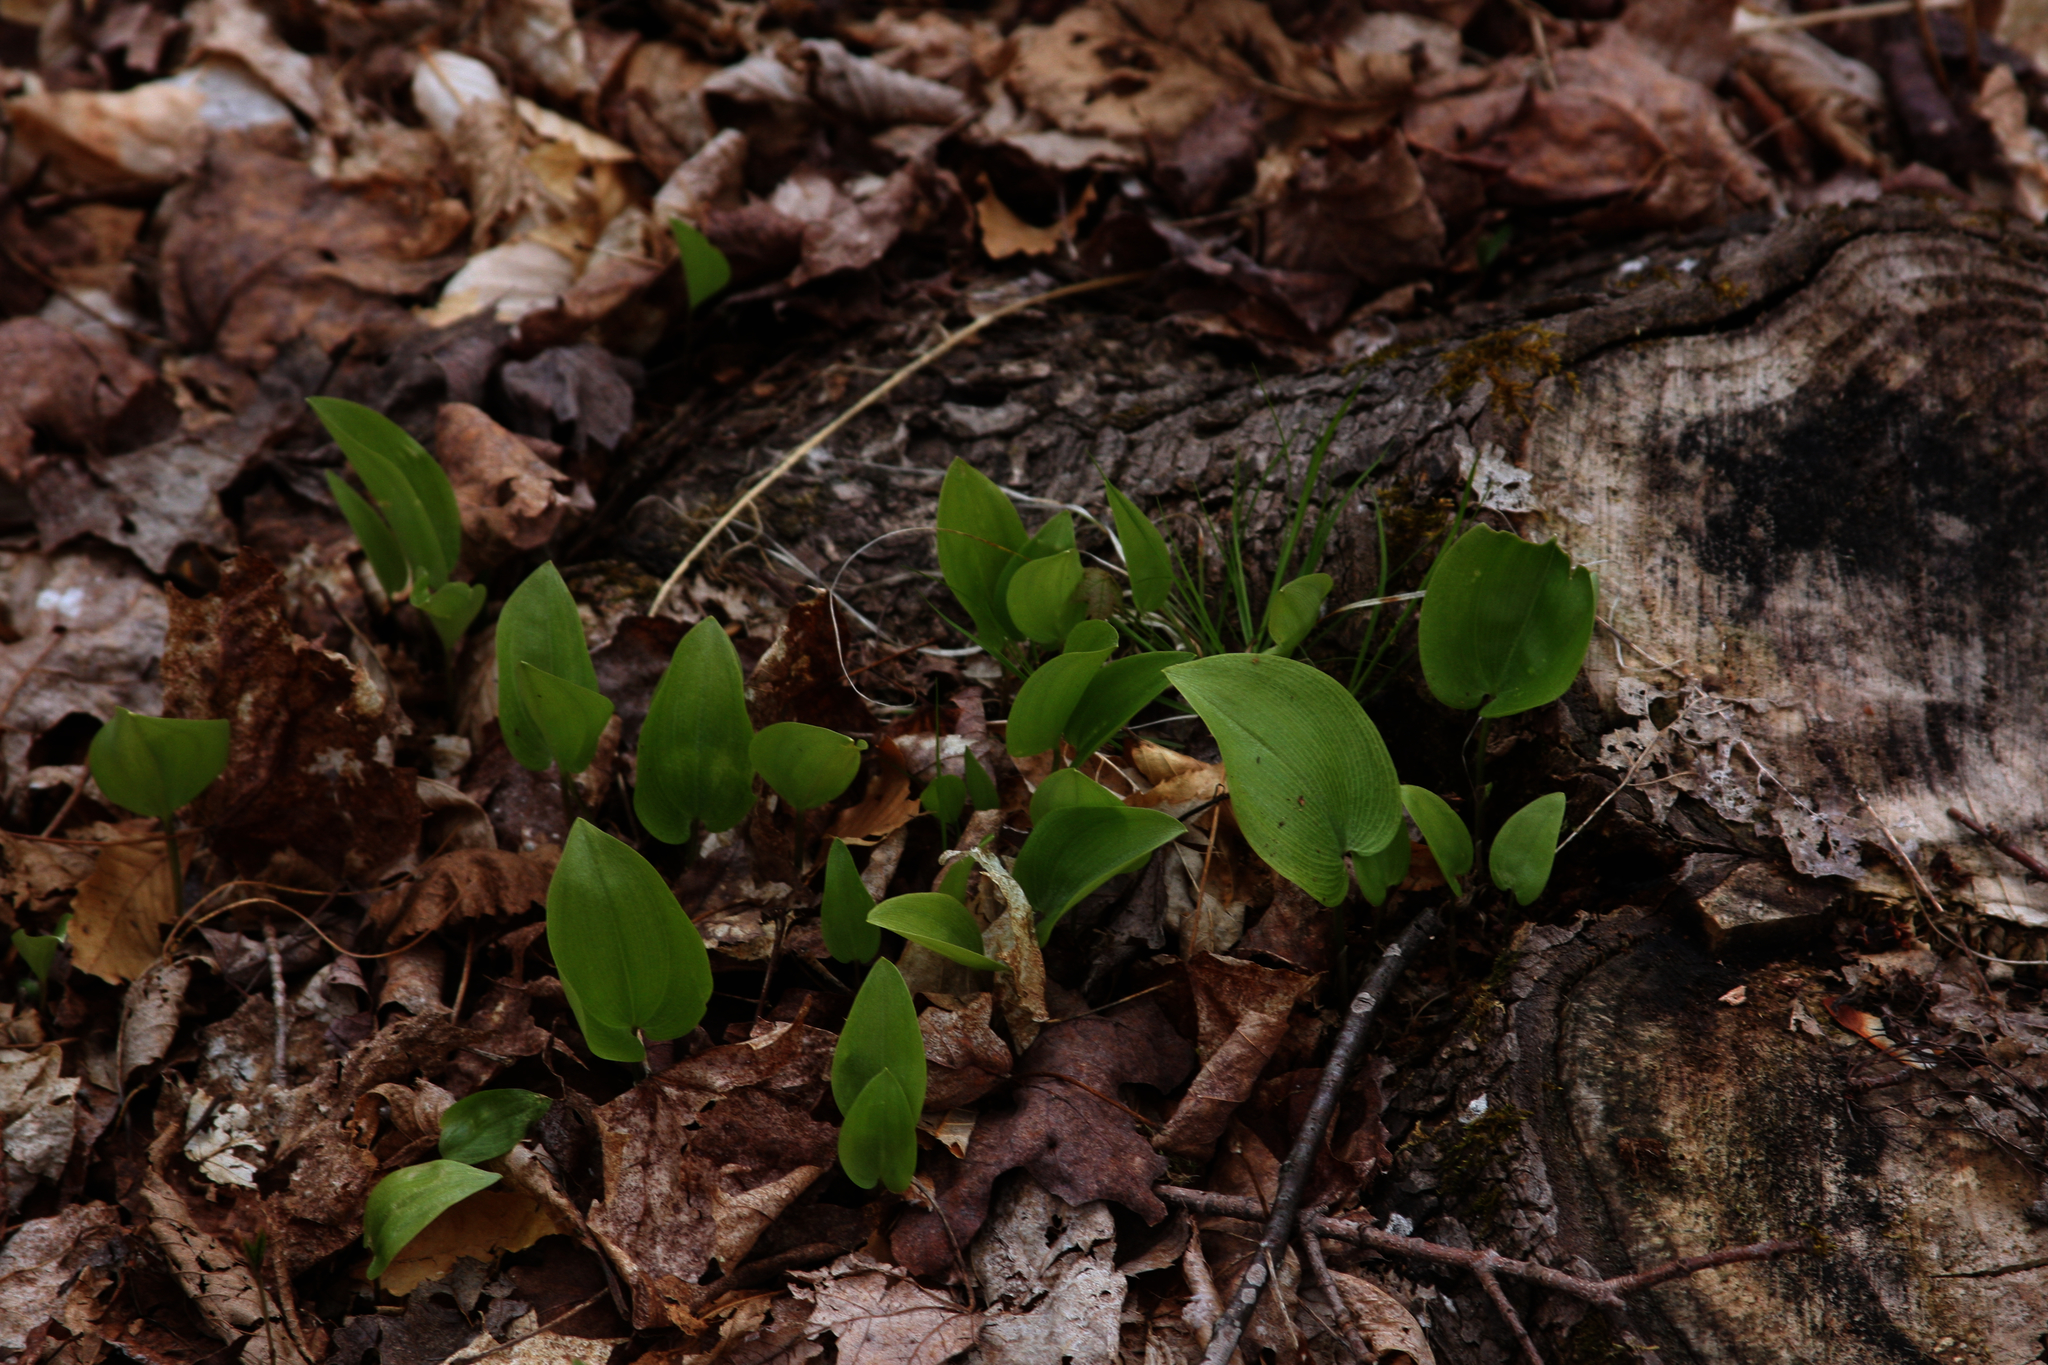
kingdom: Plantae
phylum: Tracheophyta
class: Liliopsida
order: Asparagales
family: Asparagaceae
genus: Maianthemum
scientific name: Maianthemum canadense
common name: False lily-of-the-valley
